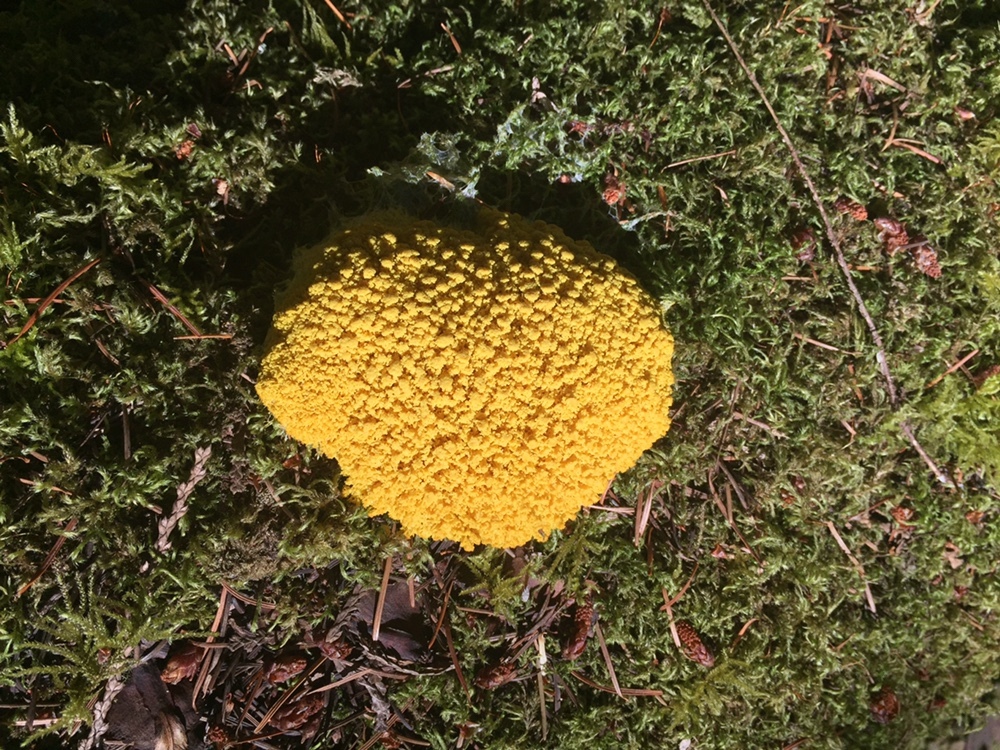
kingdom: Protozoa
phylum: Mycetozoa
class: Myxomycetes
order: Physarales
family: Physaraceae
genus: Fuligo
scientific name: Fuligo septica
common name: Dog vomit slime mold
